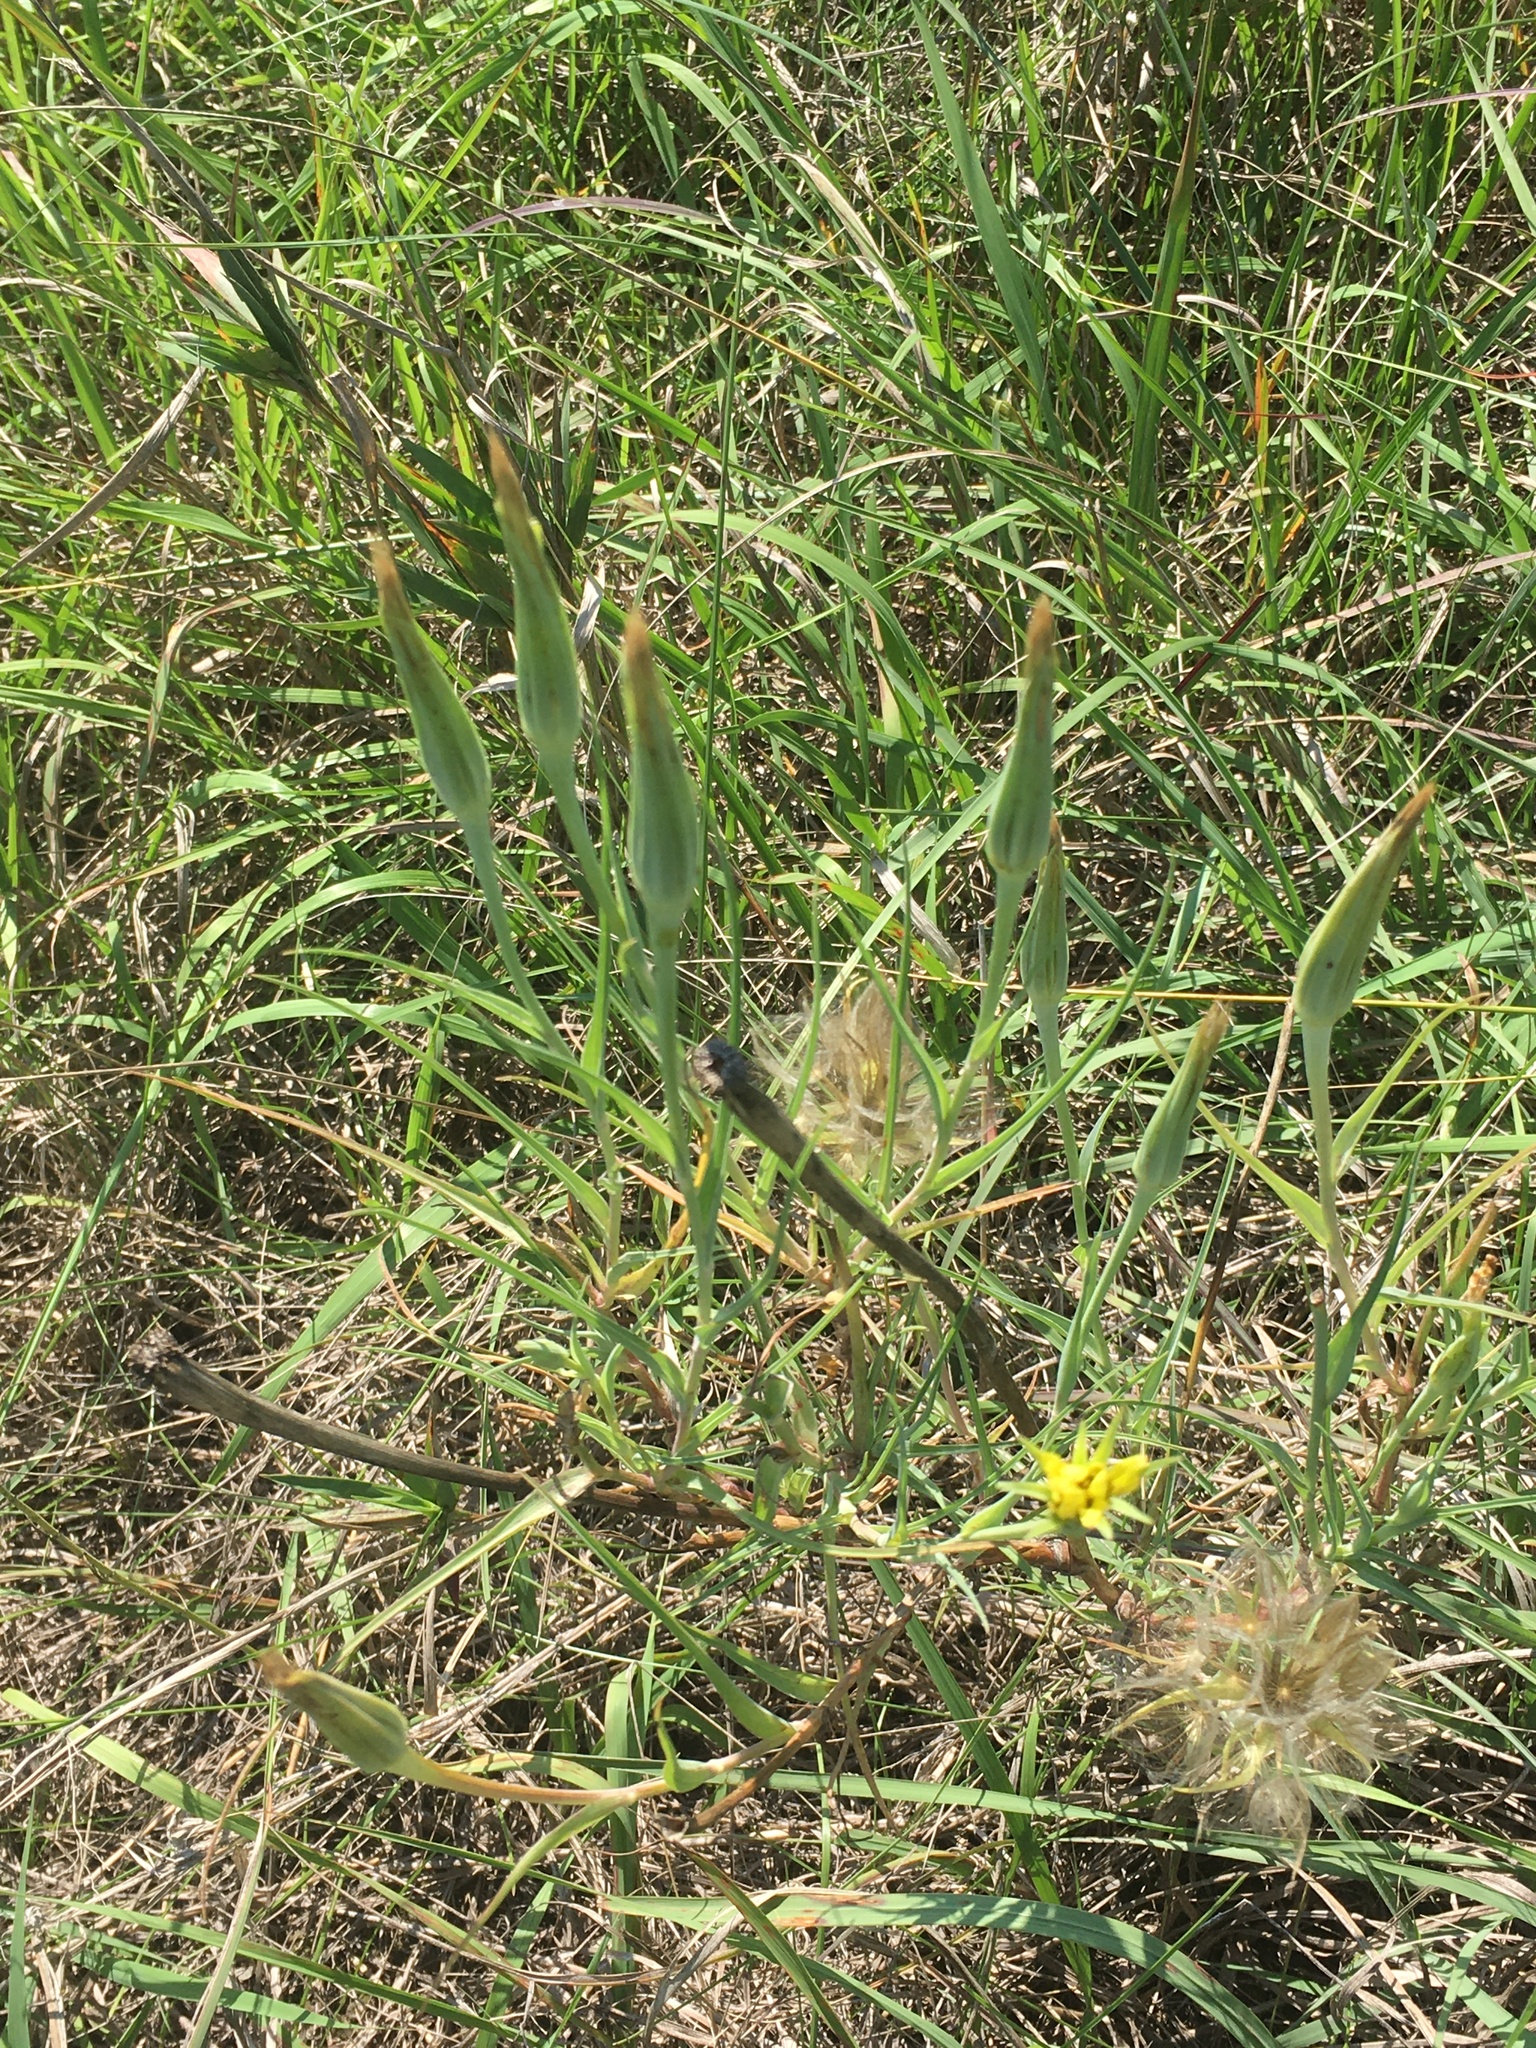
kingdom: Plantae
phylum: Tracheophyta
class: Magnoliopsida
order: Asterales
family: Asteraceae
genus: Tragopogon
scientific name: Tragopogon dubius
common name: Yellow salsify
